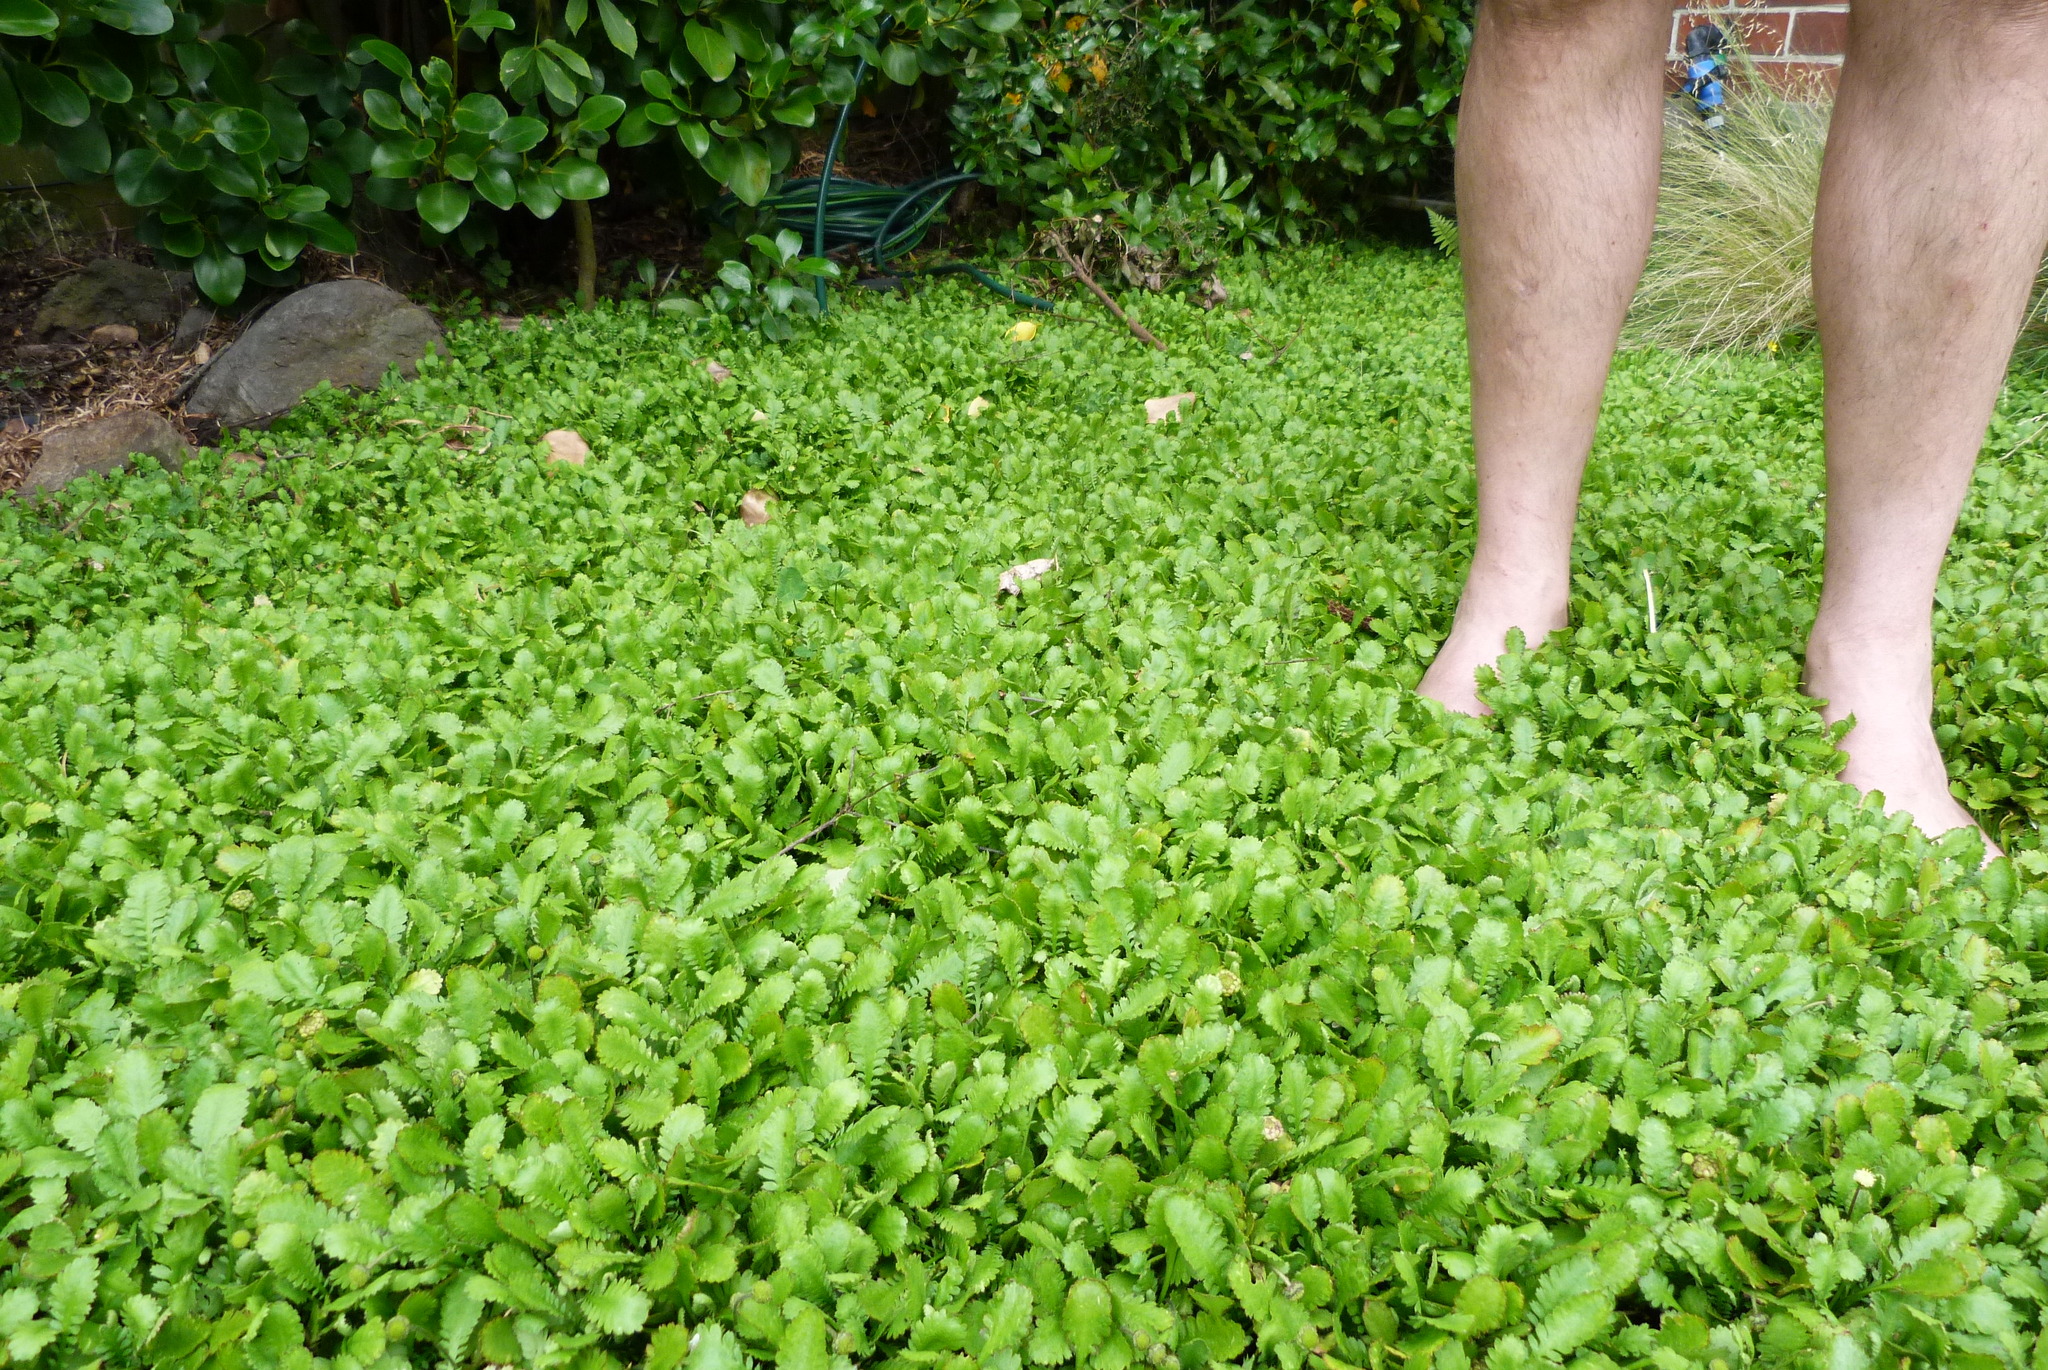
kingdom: Plantae
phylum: Tracheophyta
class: Magnoliopsida
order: Asterales
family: Asteraceae
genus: Leptinella
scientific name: Leptinella dioica
